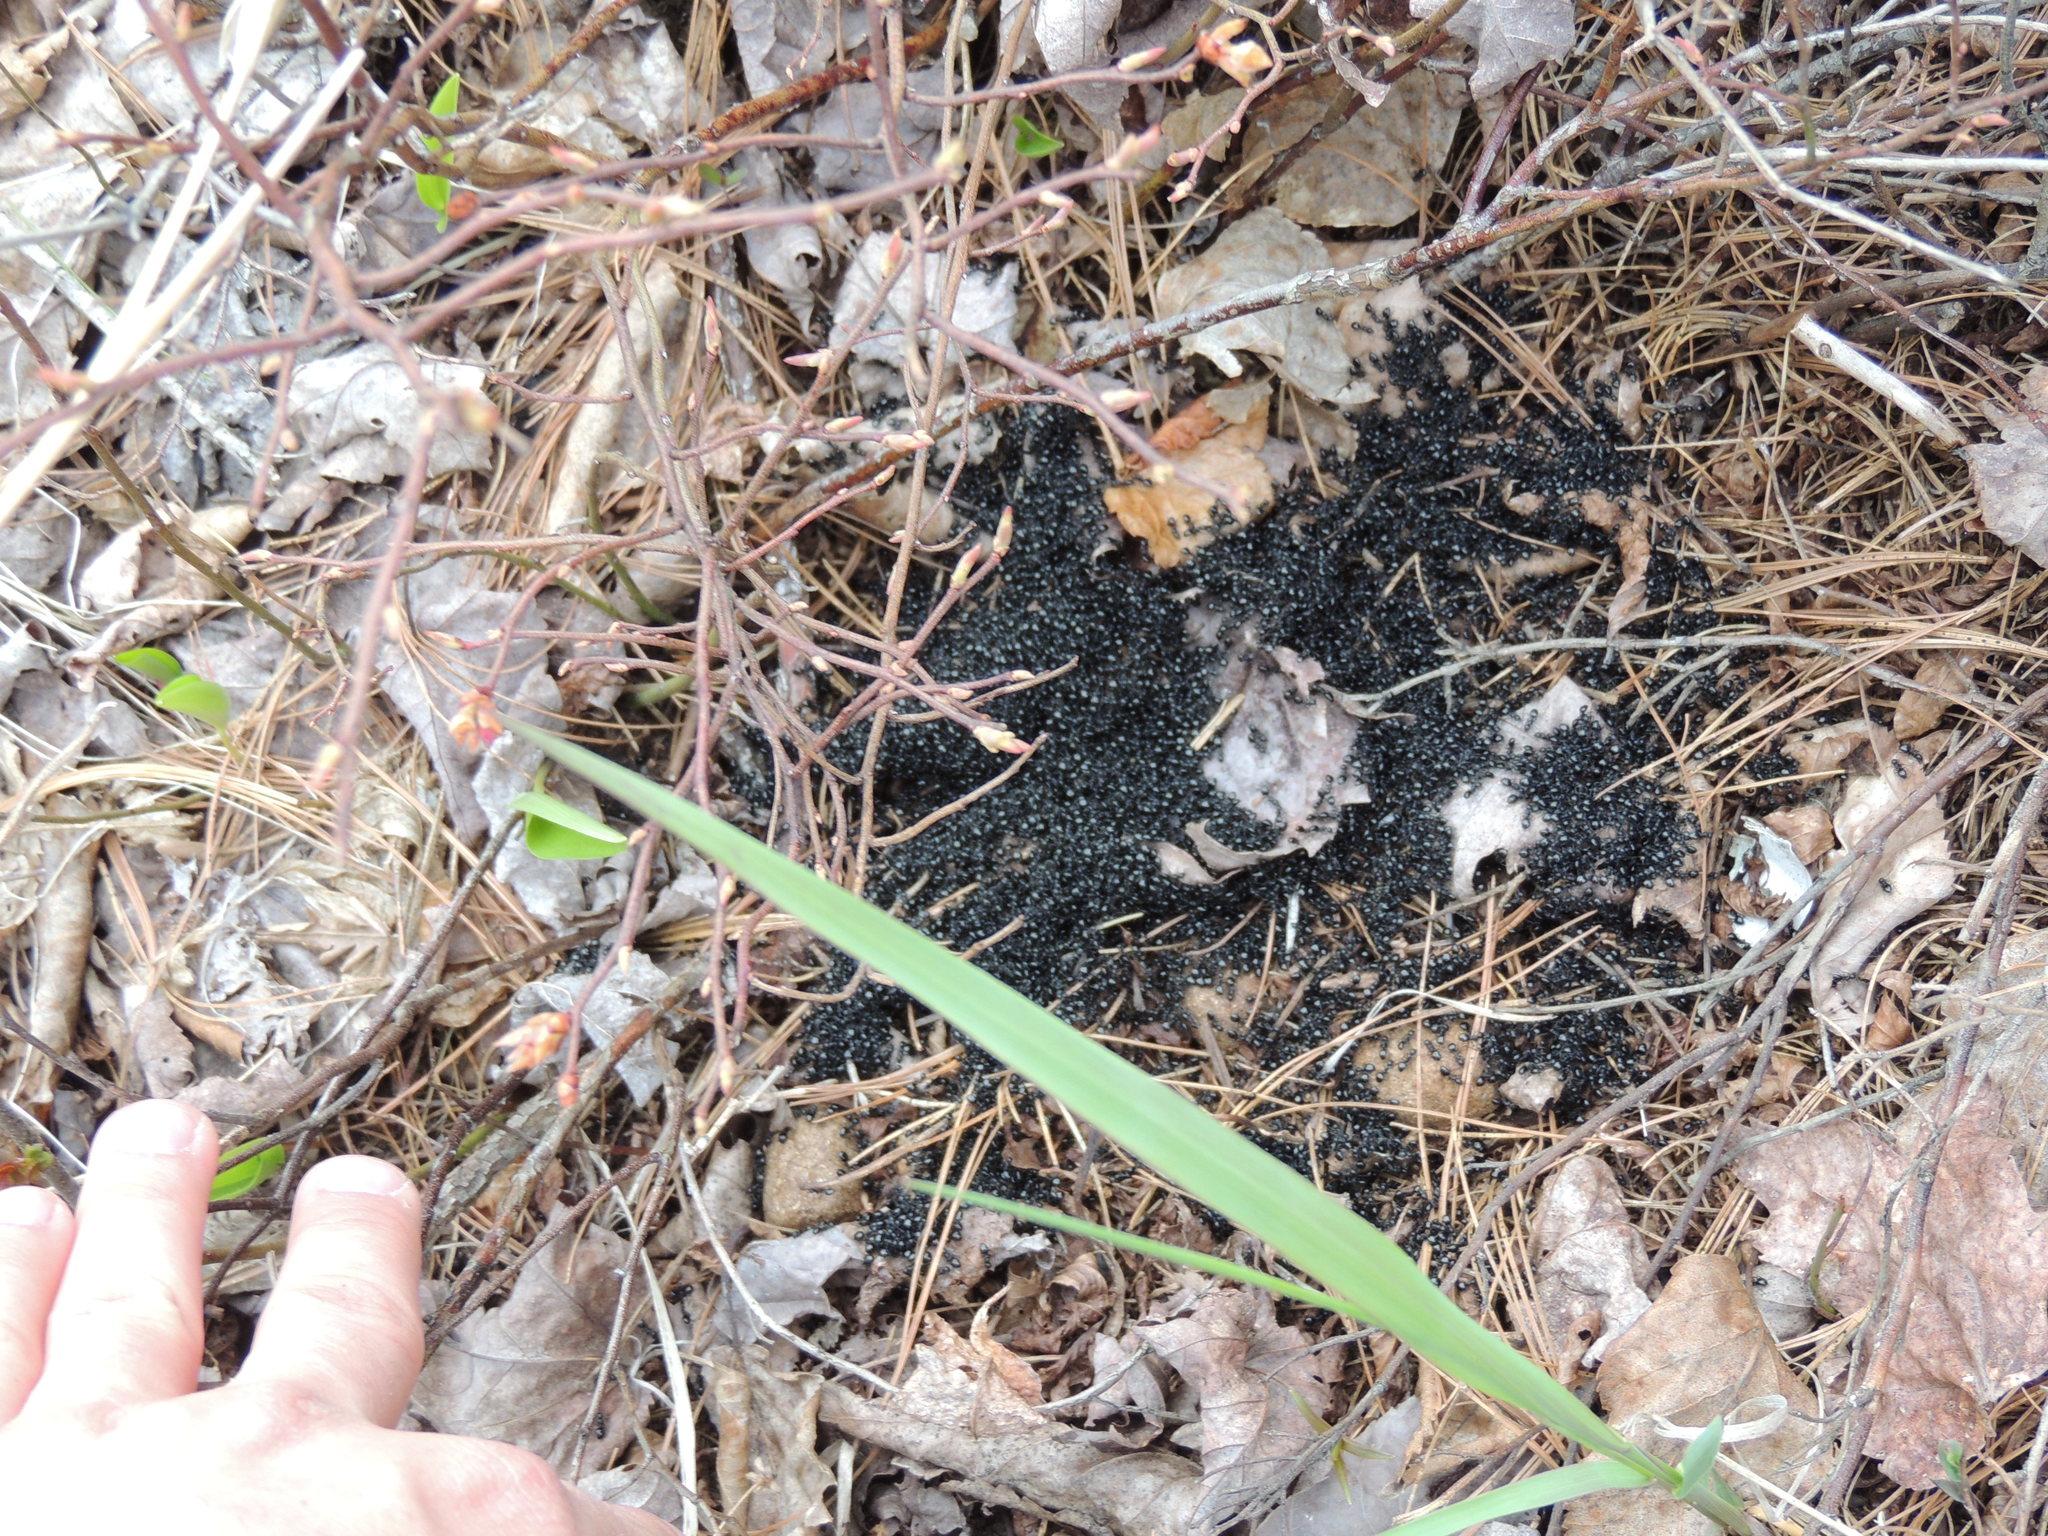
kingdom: Animalia
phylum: Arthropoda
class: Insecta
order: Hymenoptera
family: Formicidae
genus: Dolichoderus
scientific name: Dolichoderus taschenbergi
